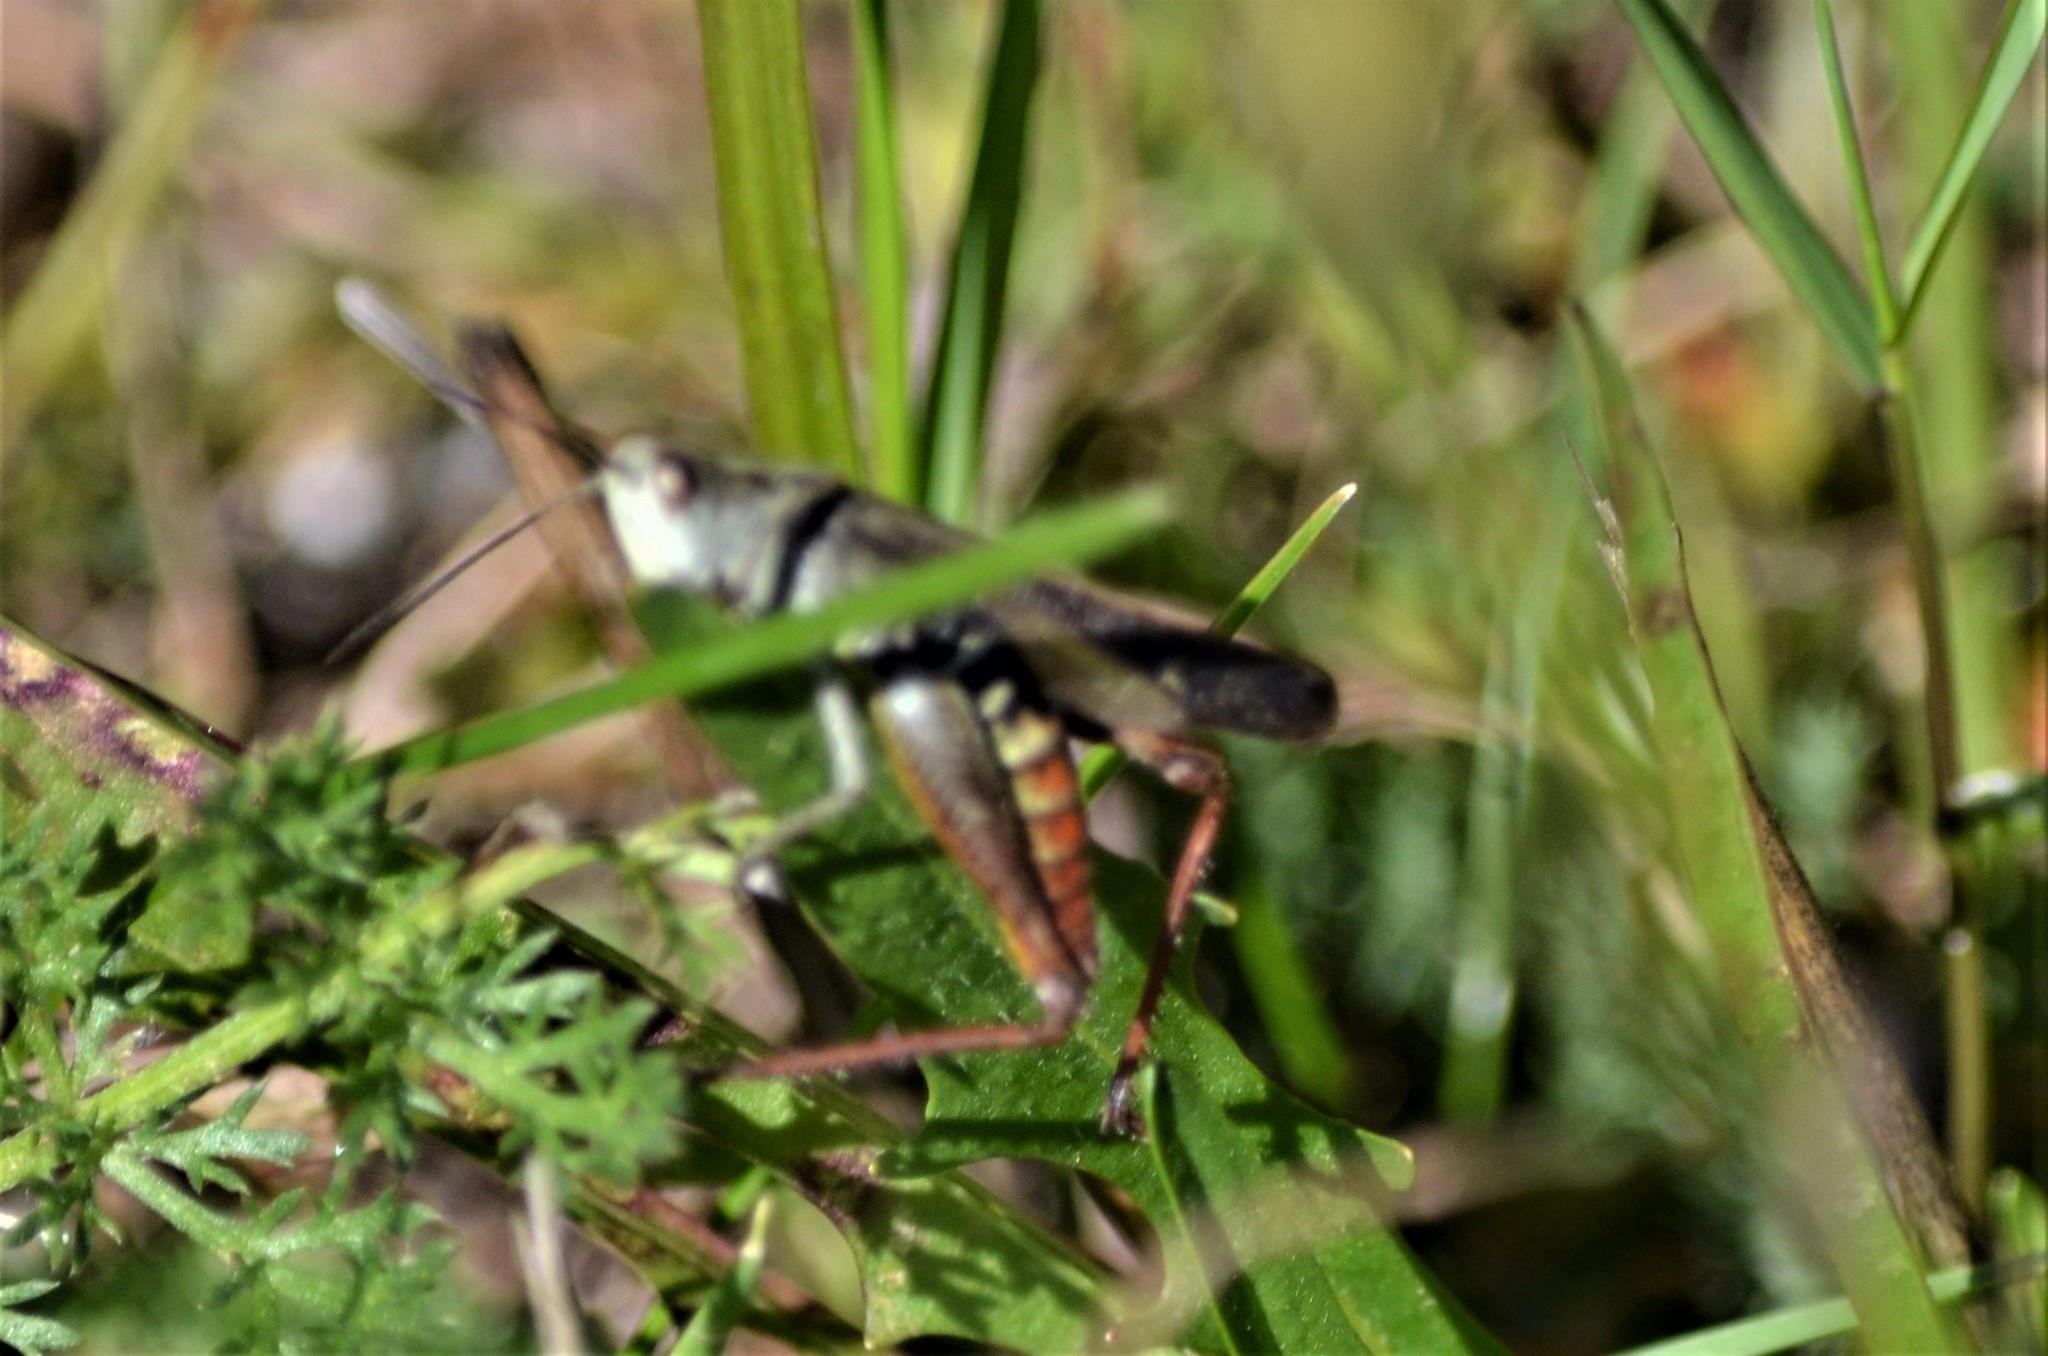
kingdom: Animalia
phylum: Arthropoda
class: Insecta
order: Orthoptera
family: Acrididae
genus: Chorthippus
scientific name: Chorthippus biguttulus
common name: Bow-winged grasshopper
